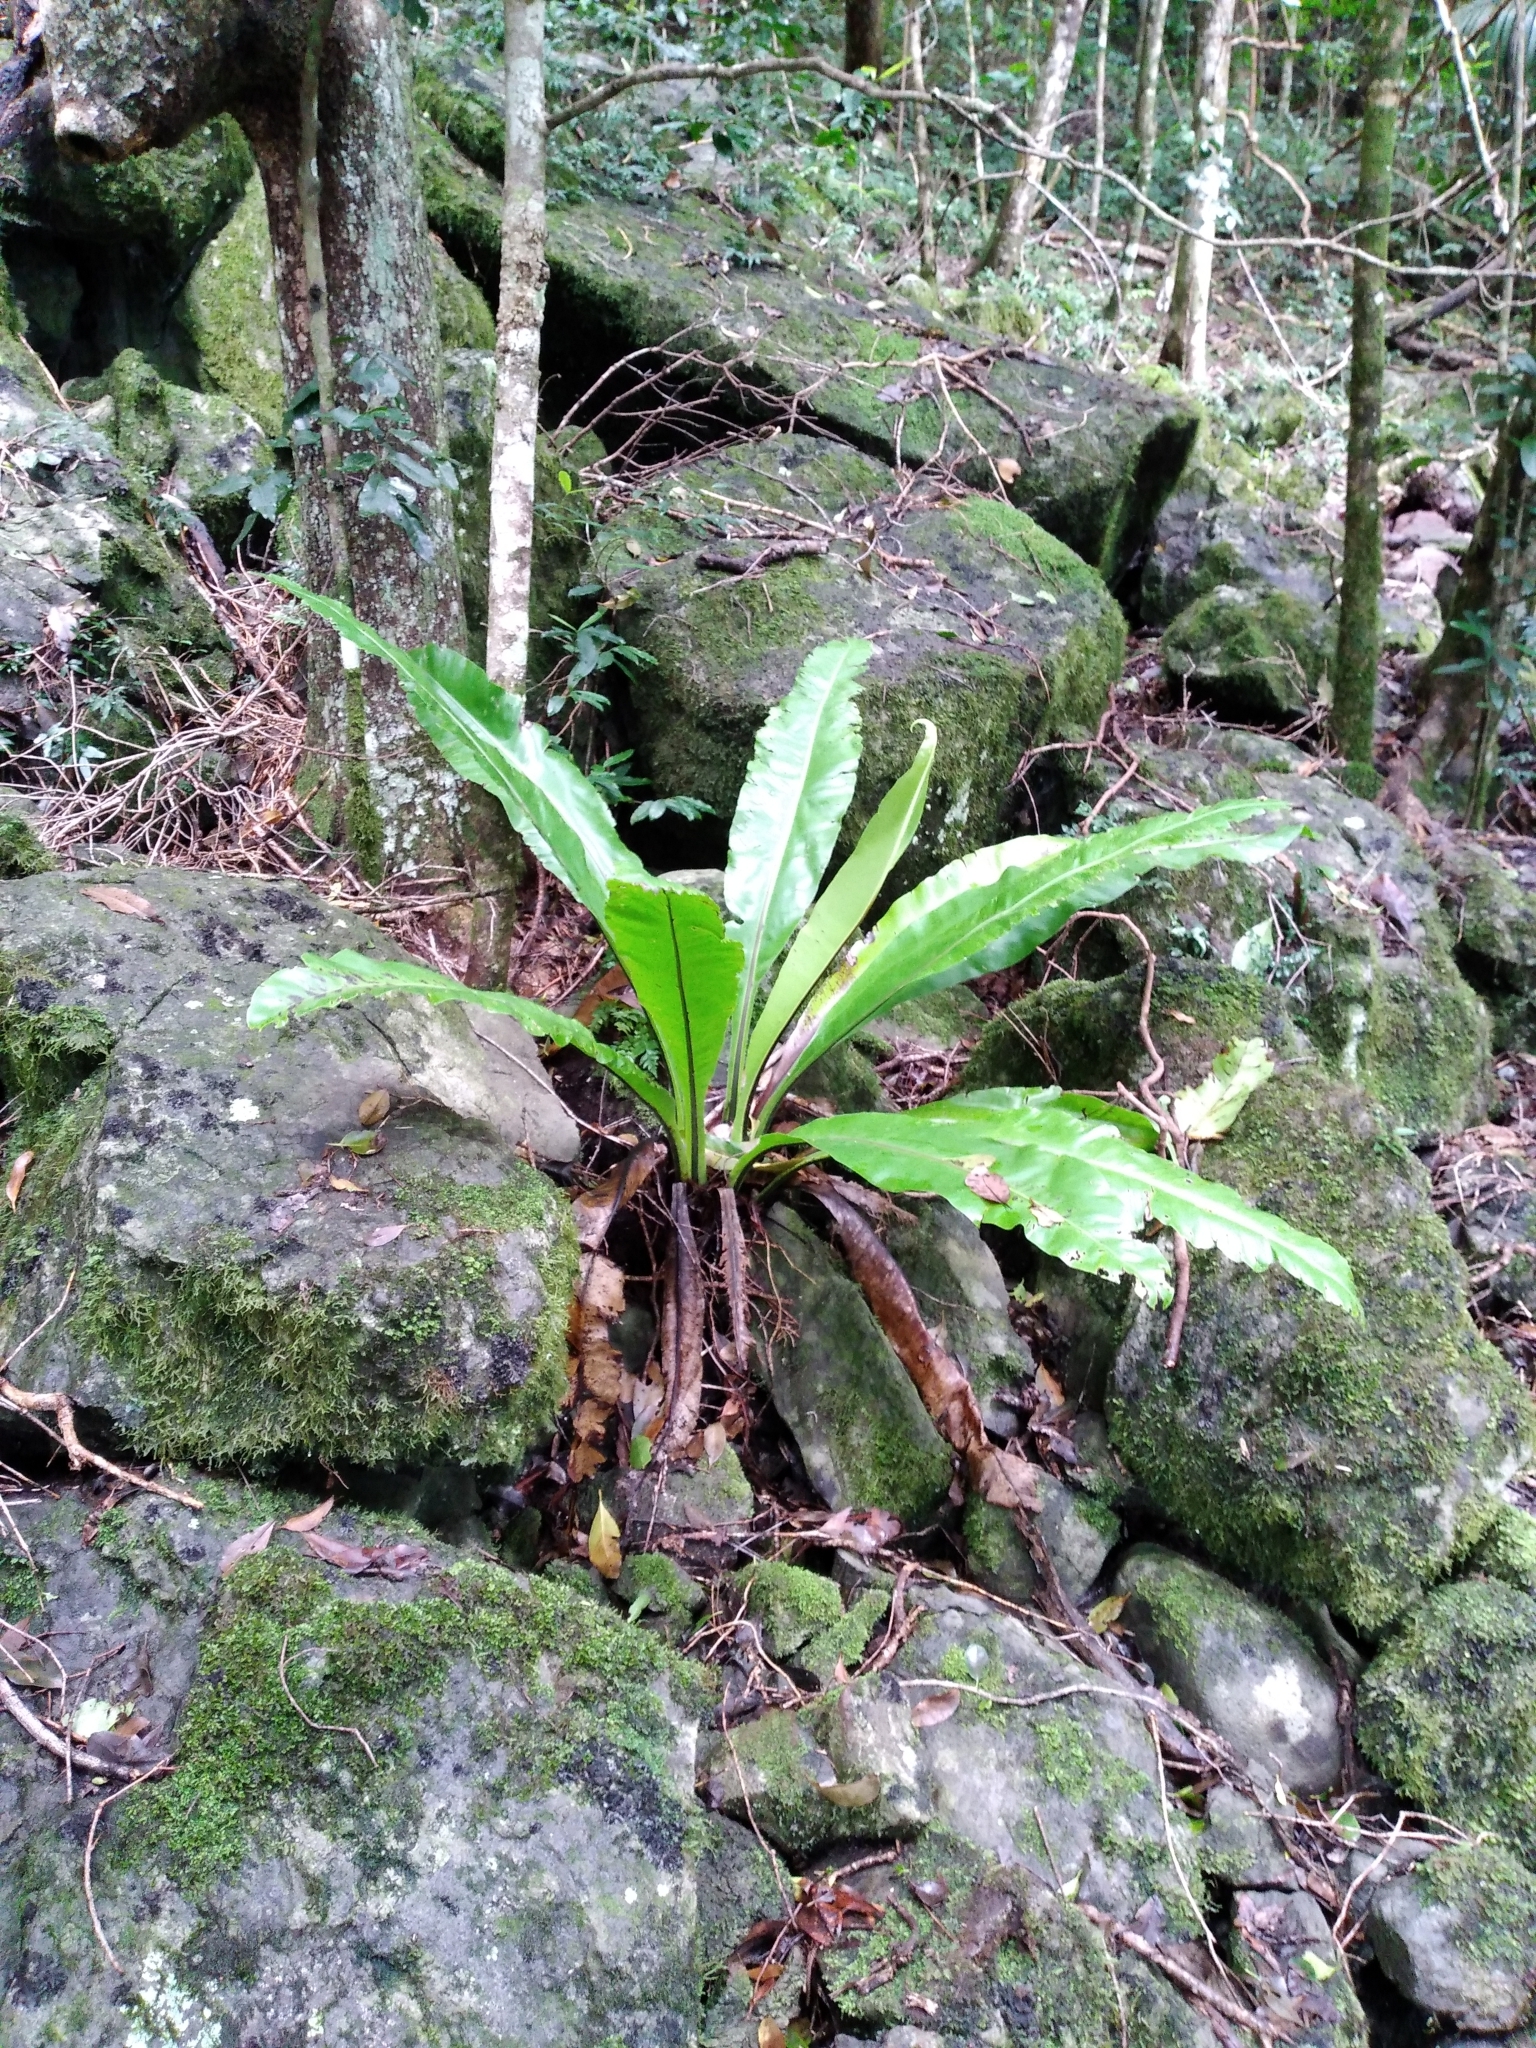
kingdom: Plantae
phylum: Tracheophyta
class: Polypodiopsida
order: Polypodiales
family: Aspleniaceae
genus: Asplenium
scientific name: Asplenium australasicum
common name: Bird's-nest fern
